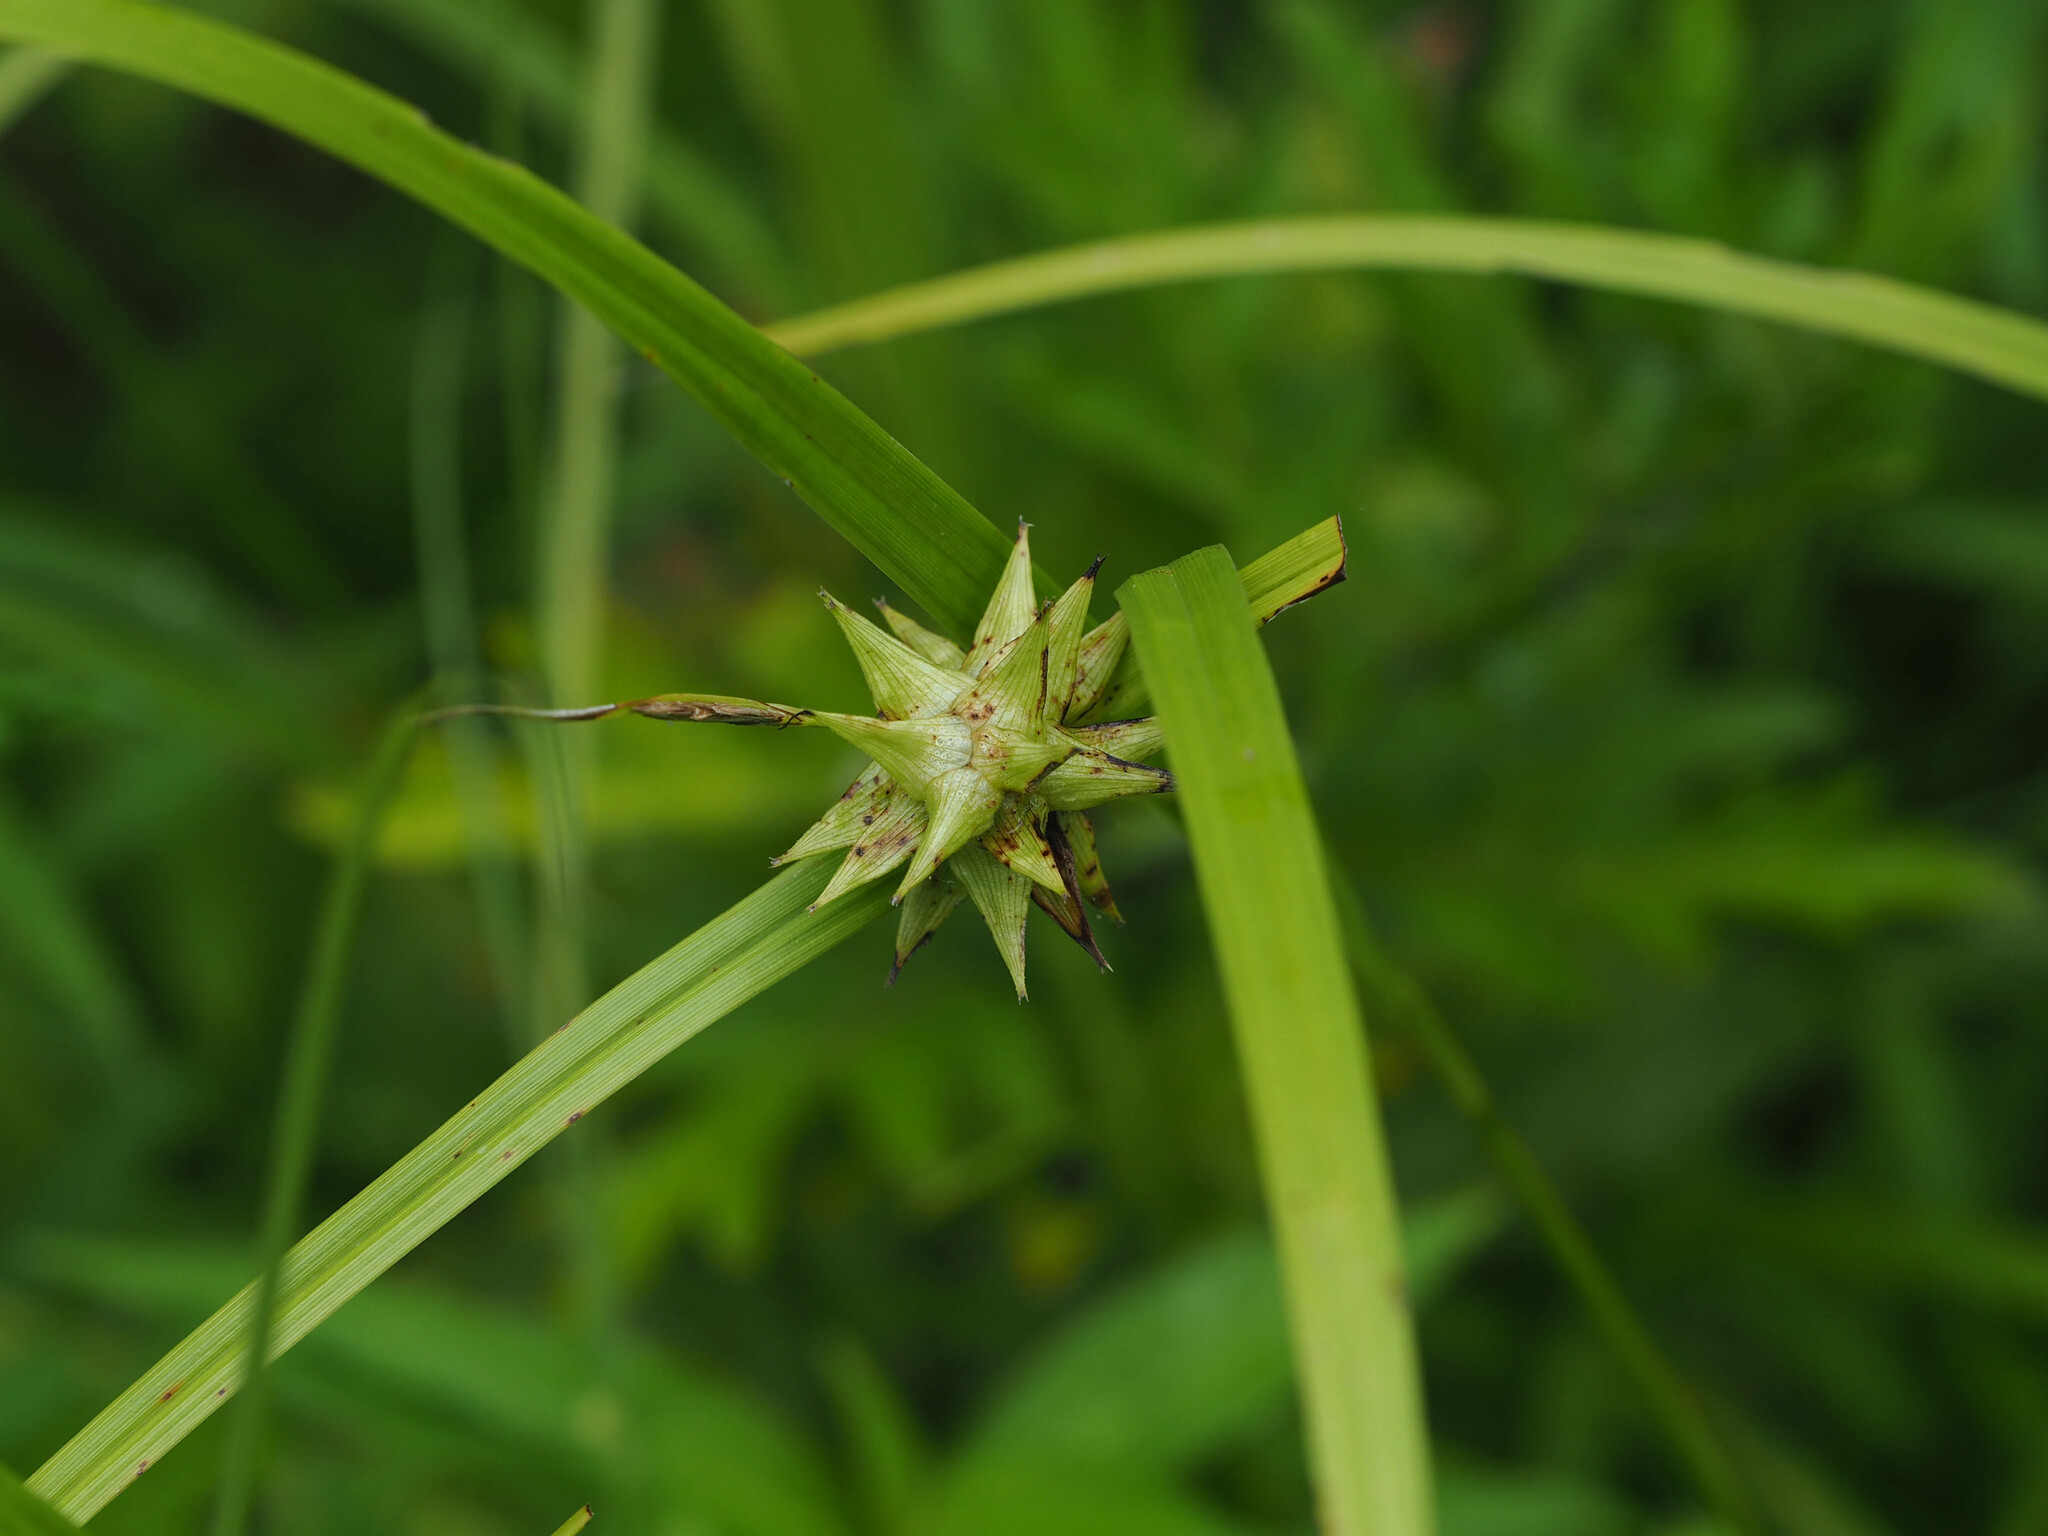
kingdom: Plantae
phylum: Tracheophyta
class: Liliopsida
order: Poales
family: Cyperaceae
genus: Carex
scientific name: Carex grayi
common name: Asa gray's sedge
